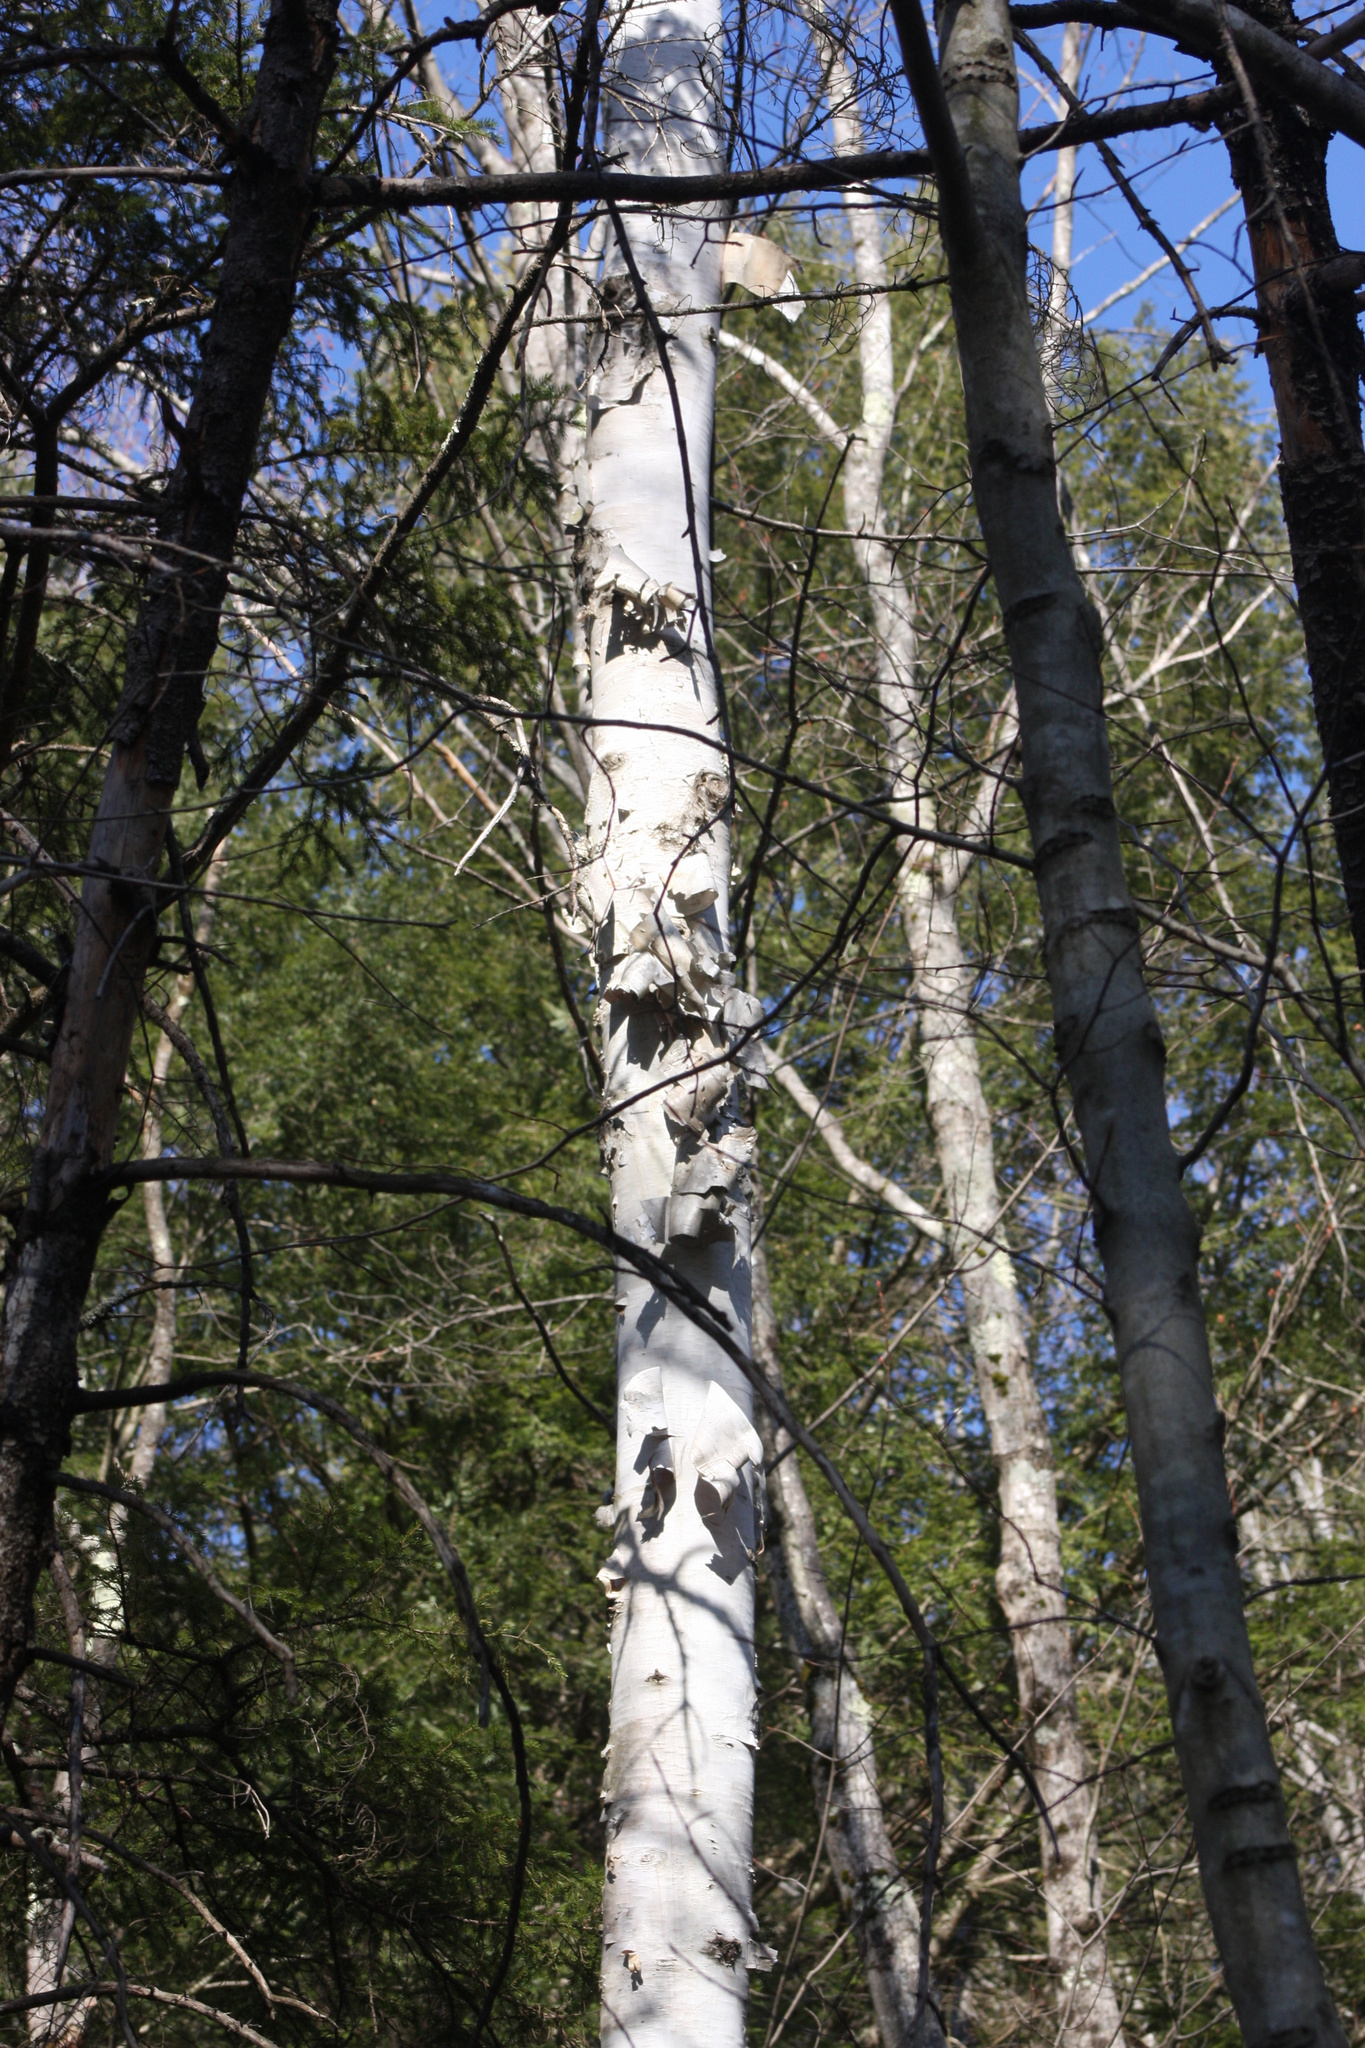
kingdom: Plantae
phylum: Tracheophyta
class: Magnoliopsida
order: Fagales
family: Betulaceae
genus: Betula
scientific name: Betula papyrifera
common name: Paper birch
